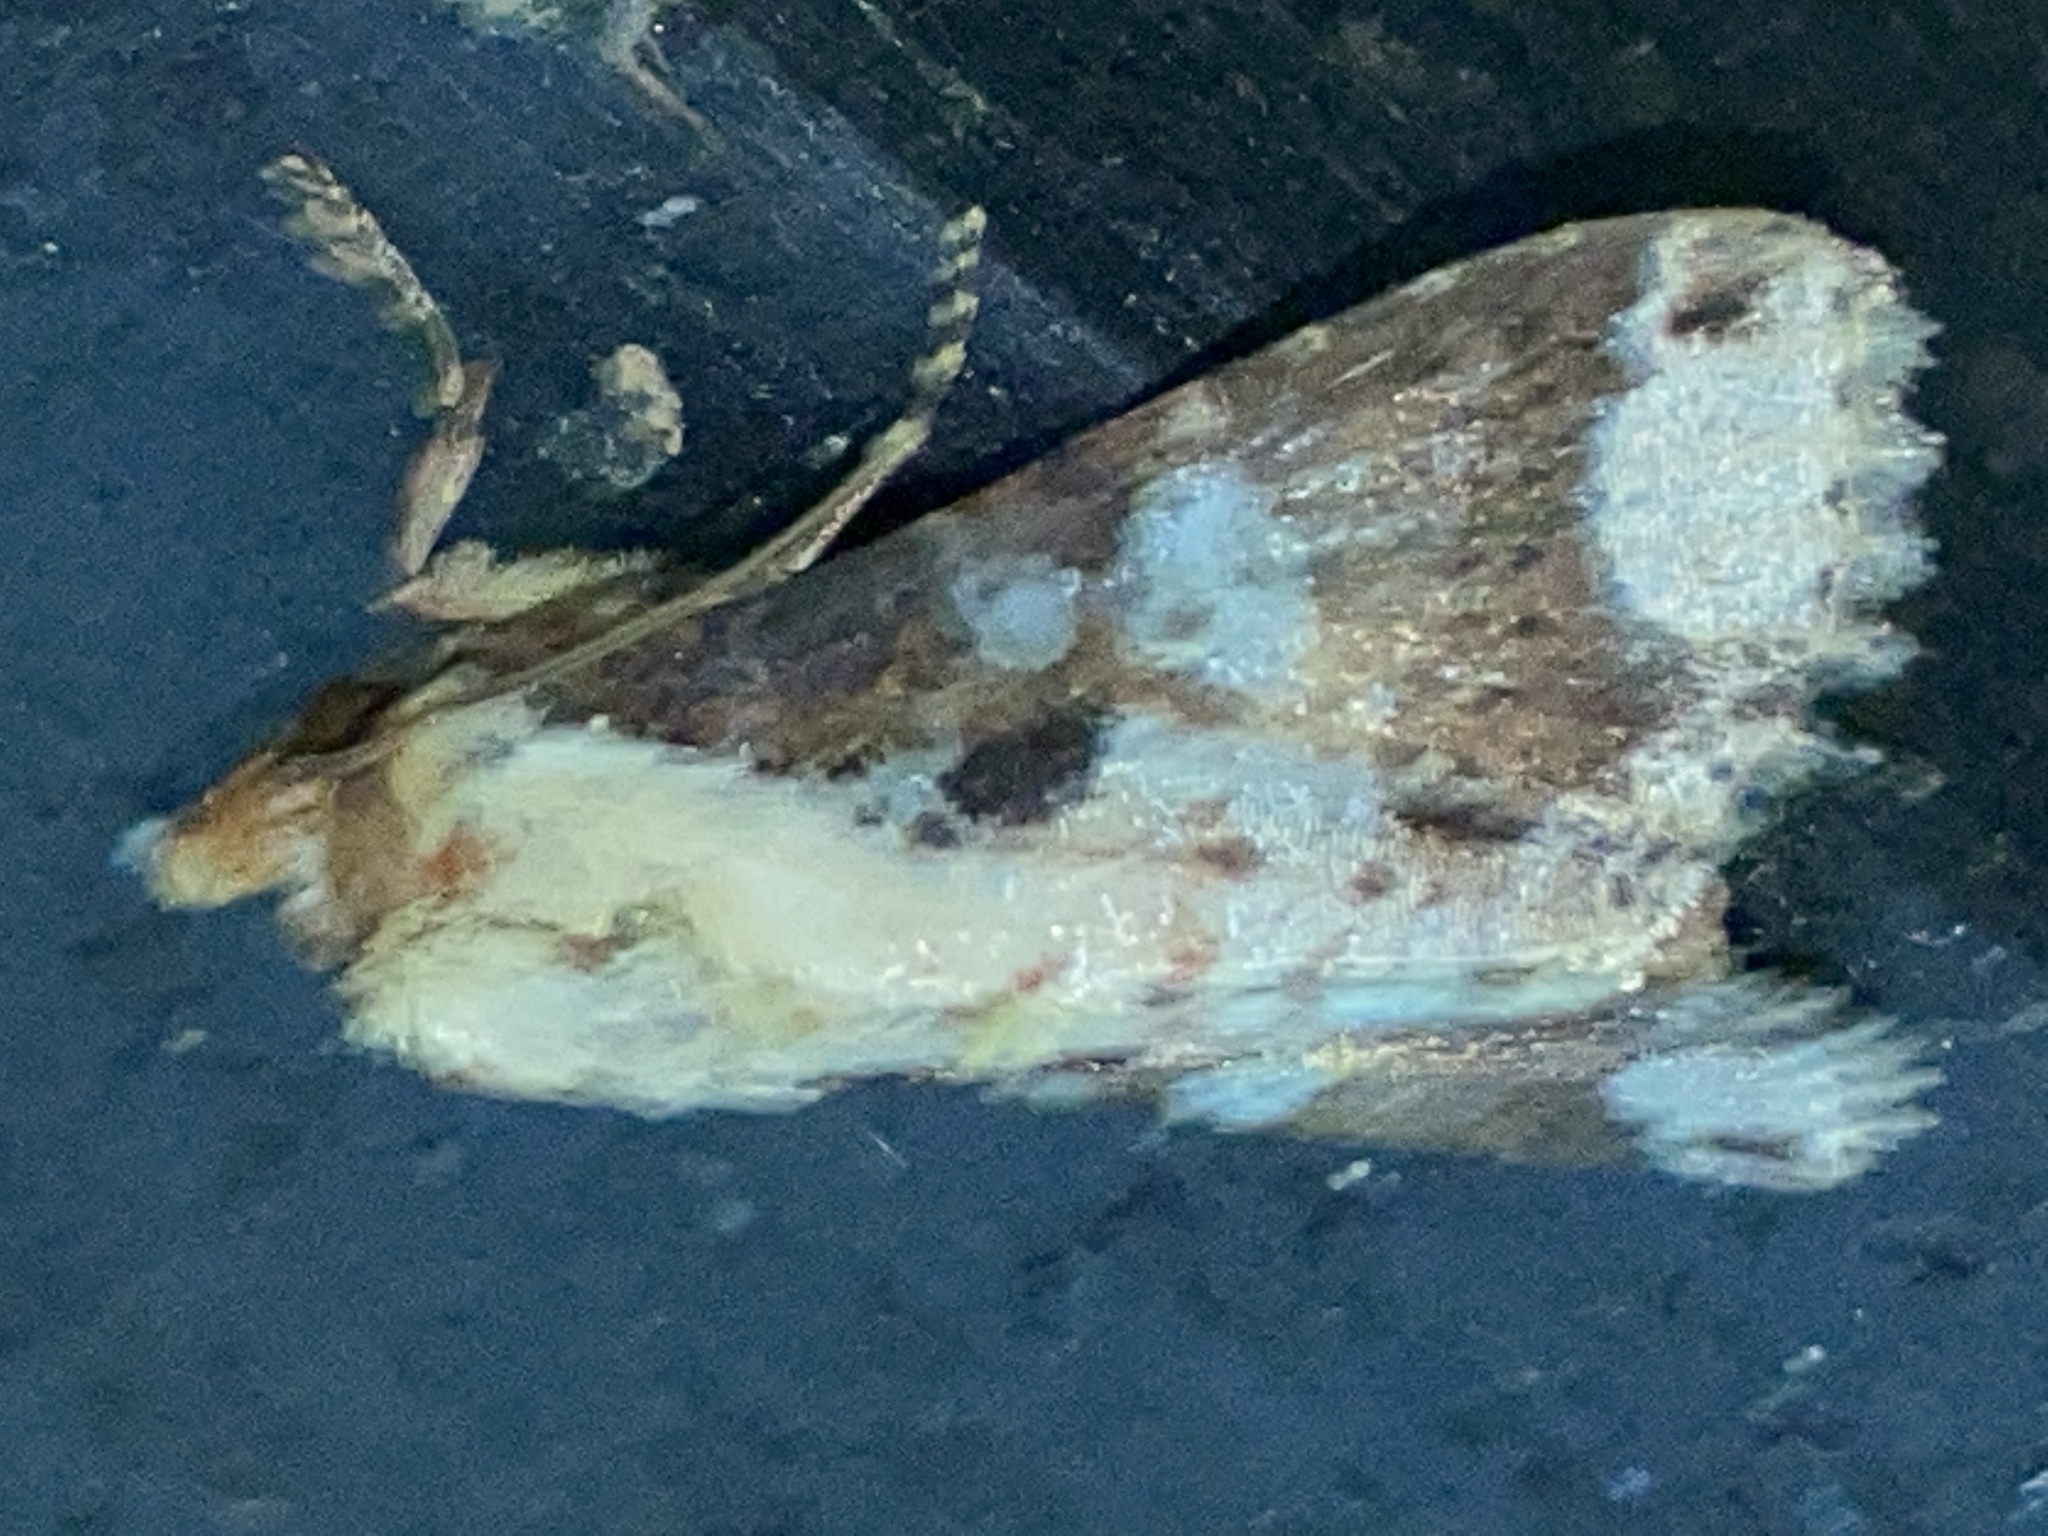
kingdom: Animalia
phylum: Arthropoda
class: Insecta
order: Lepidoptera
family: Noctuidae
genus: Condica
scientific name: Condica imitata
